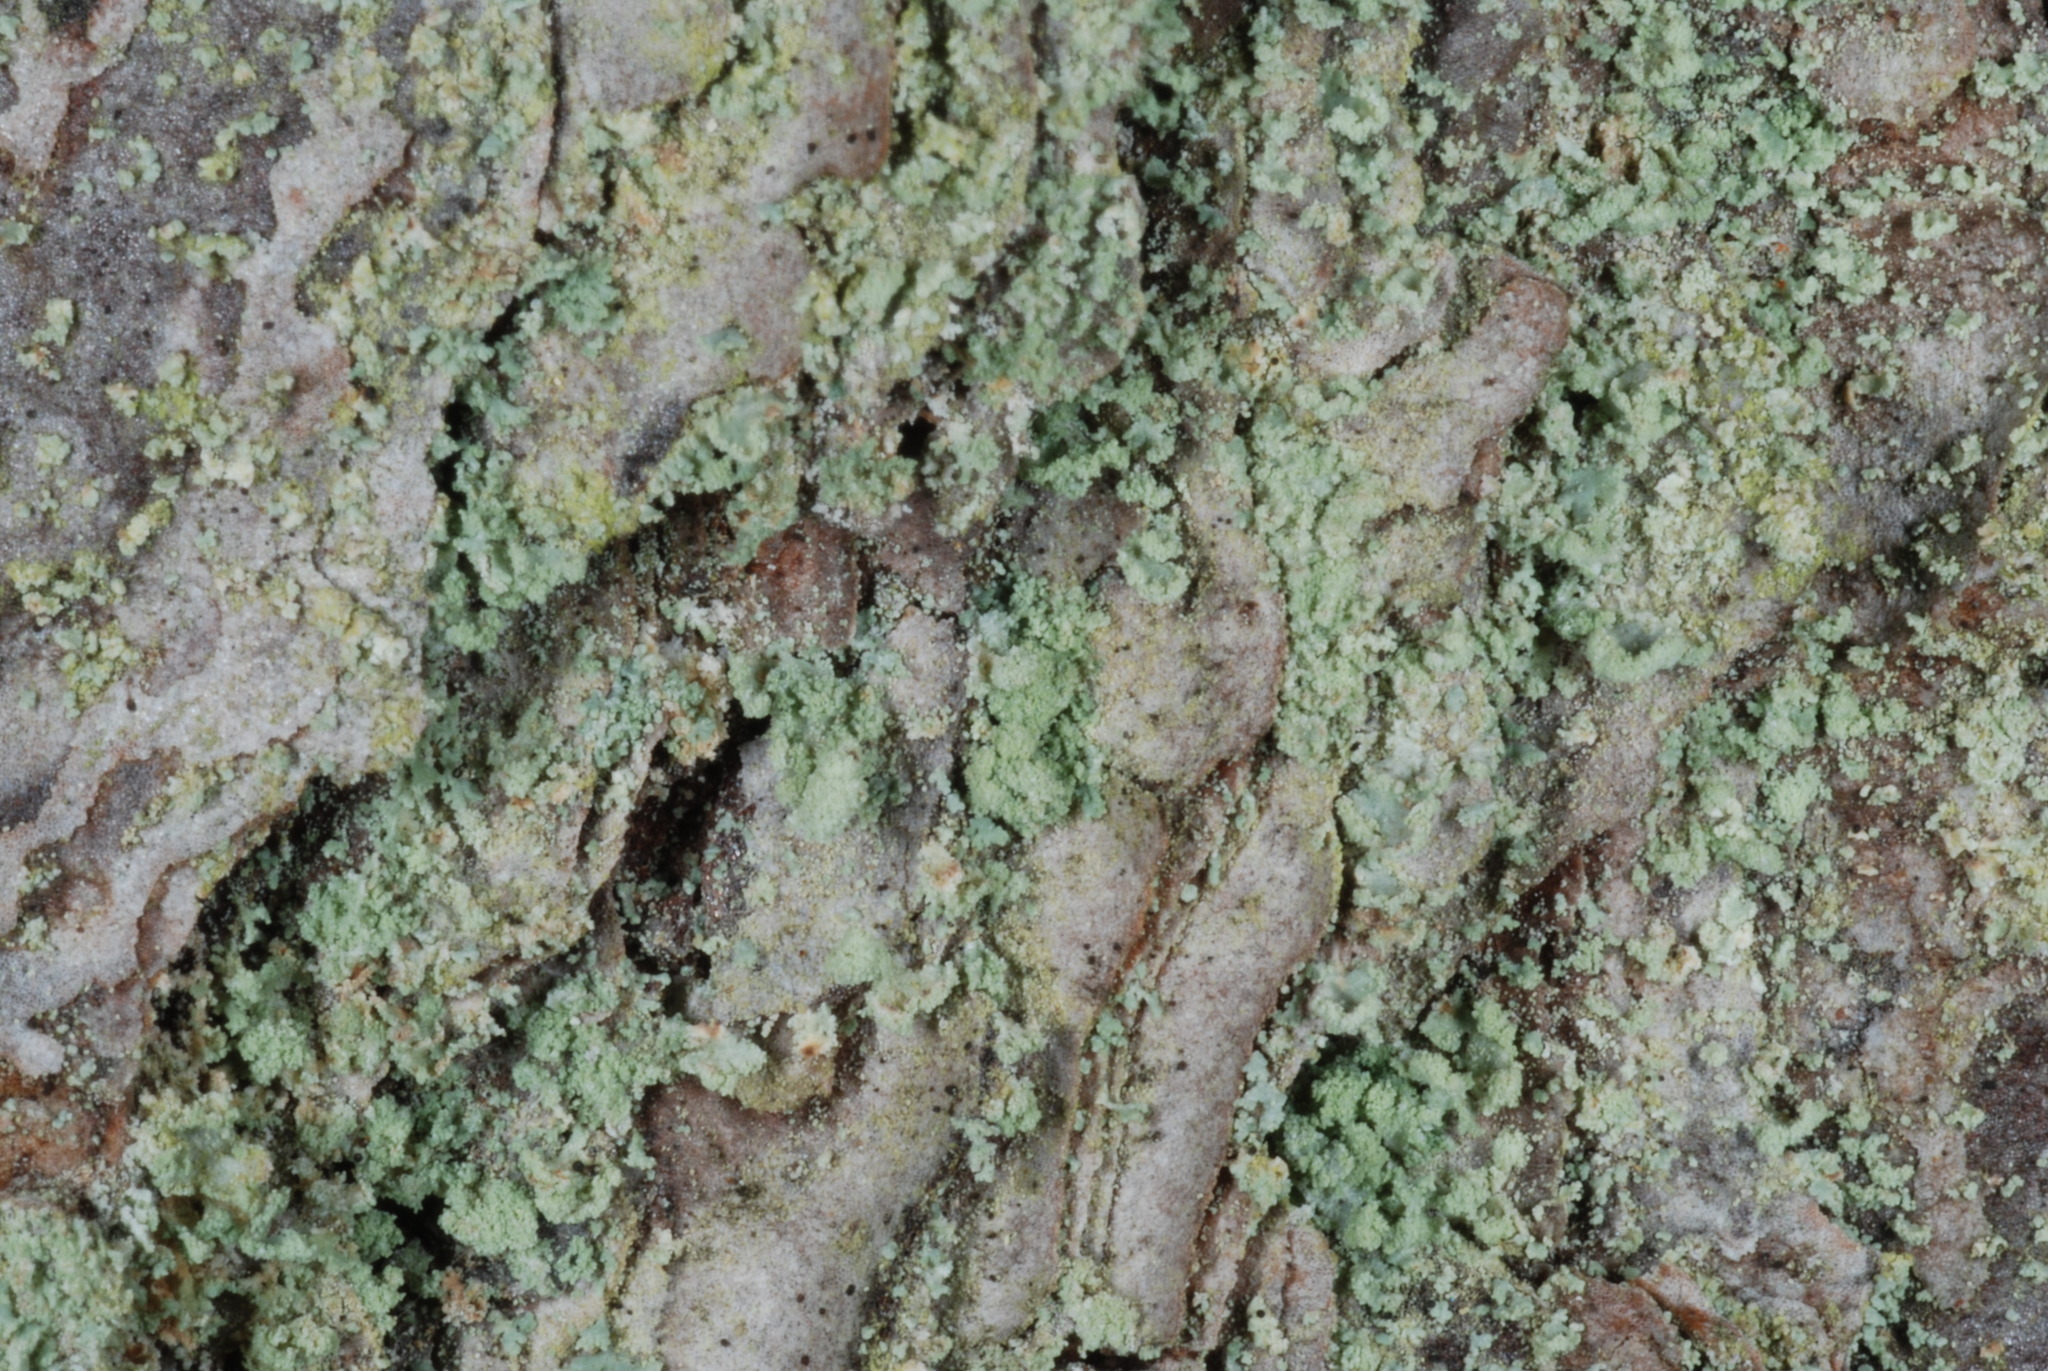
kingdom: Fungi
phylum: Ascomycota
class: Lecanoromycetes
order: Lecanorales
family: Cladoniaceae
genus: Cladonia
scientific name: Cladonia ravenelii
